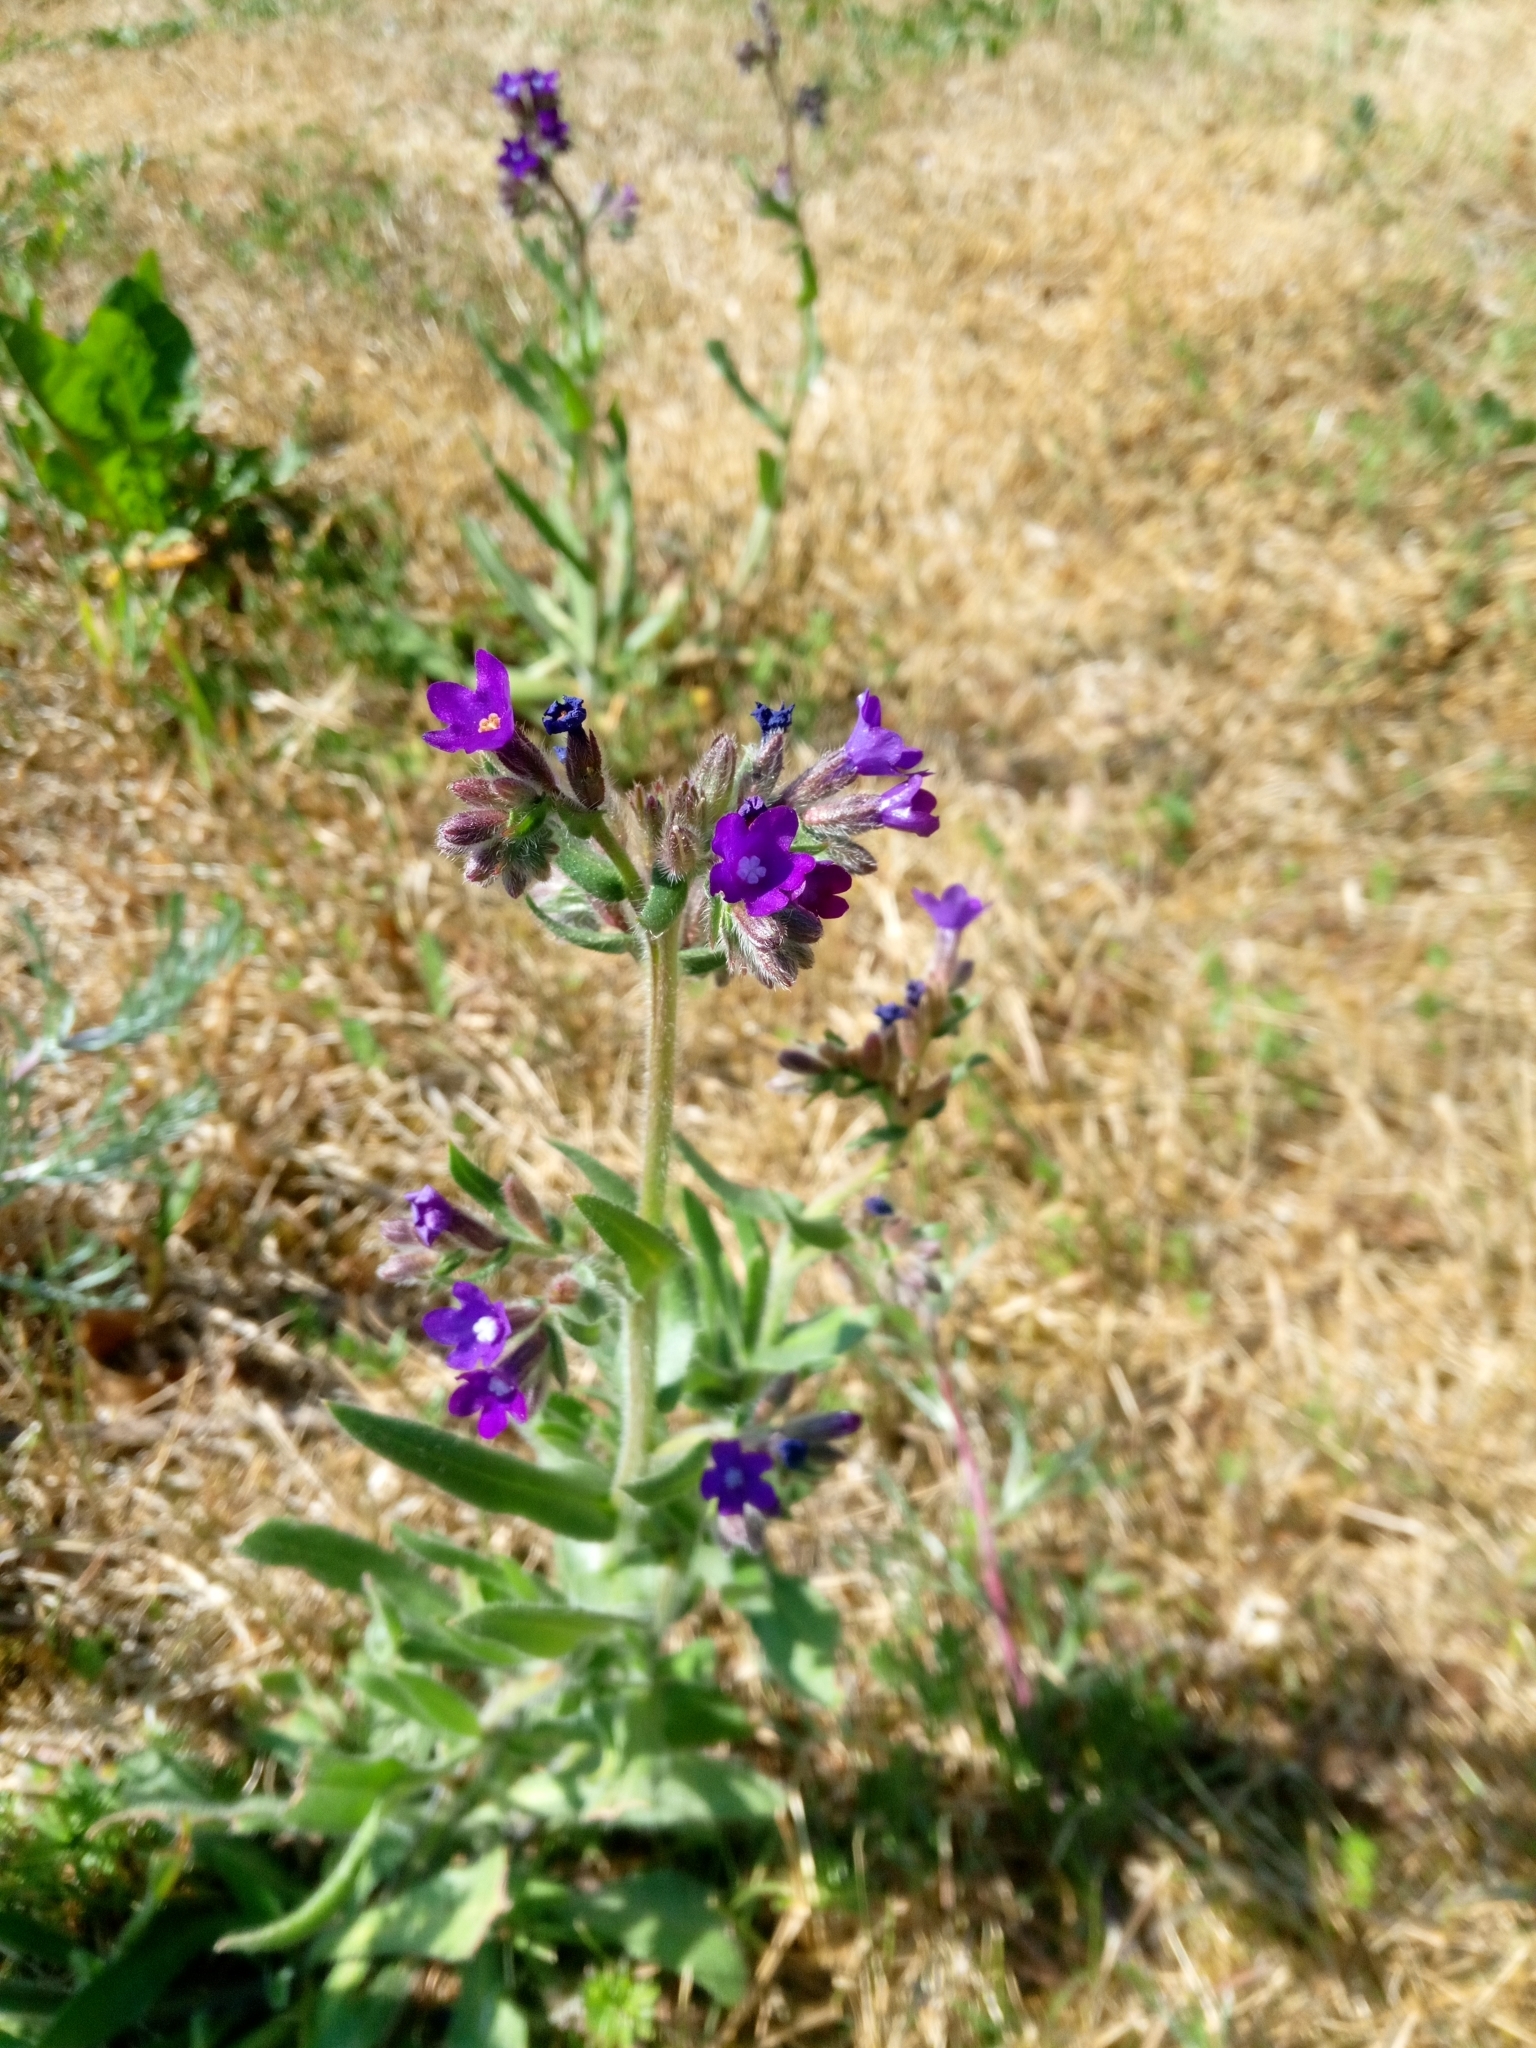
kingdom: Plantae
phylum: Tracheophyta
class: Magnoliopsida
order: Boraginales
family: Boraginaceae
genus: Anchusa
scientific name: Anchusa officinalis
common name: Alkanet
